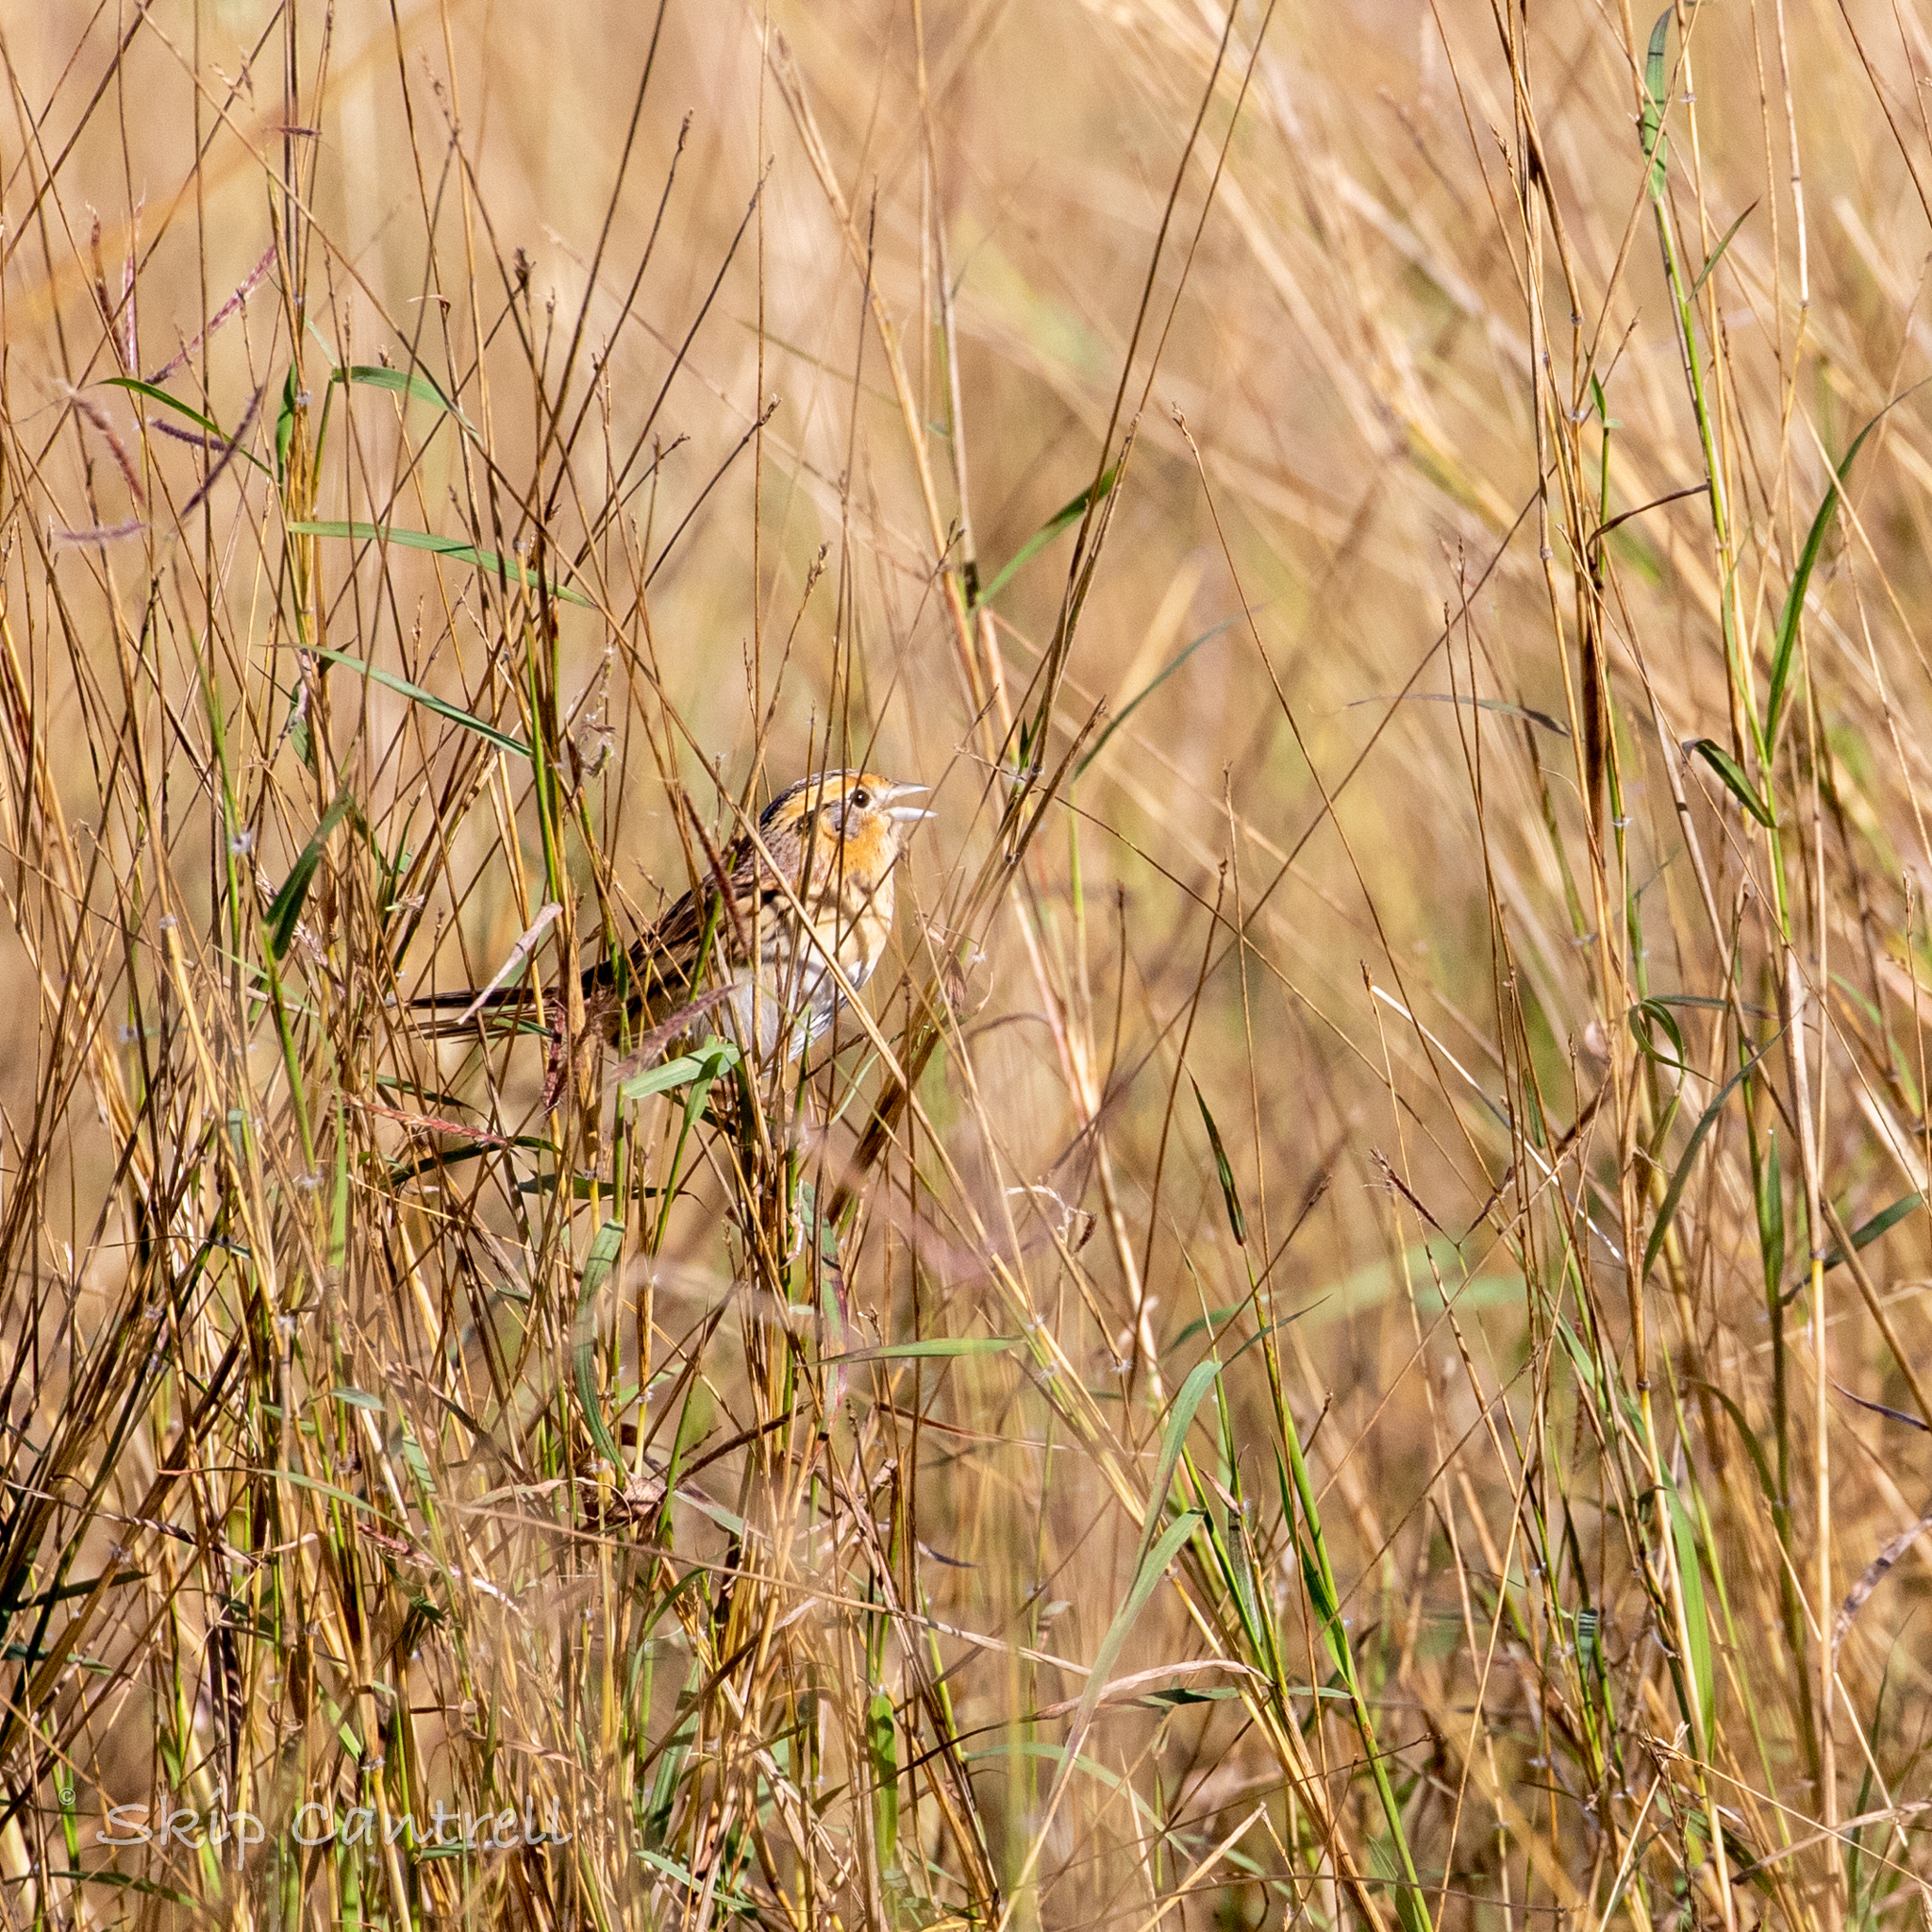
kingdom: Animalia
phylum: Chordata
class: Aves
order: Passeriformes
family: Passerellidae
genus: Ammospiza
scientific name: Ammospiza leconteii
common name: Le conte's sparrow
